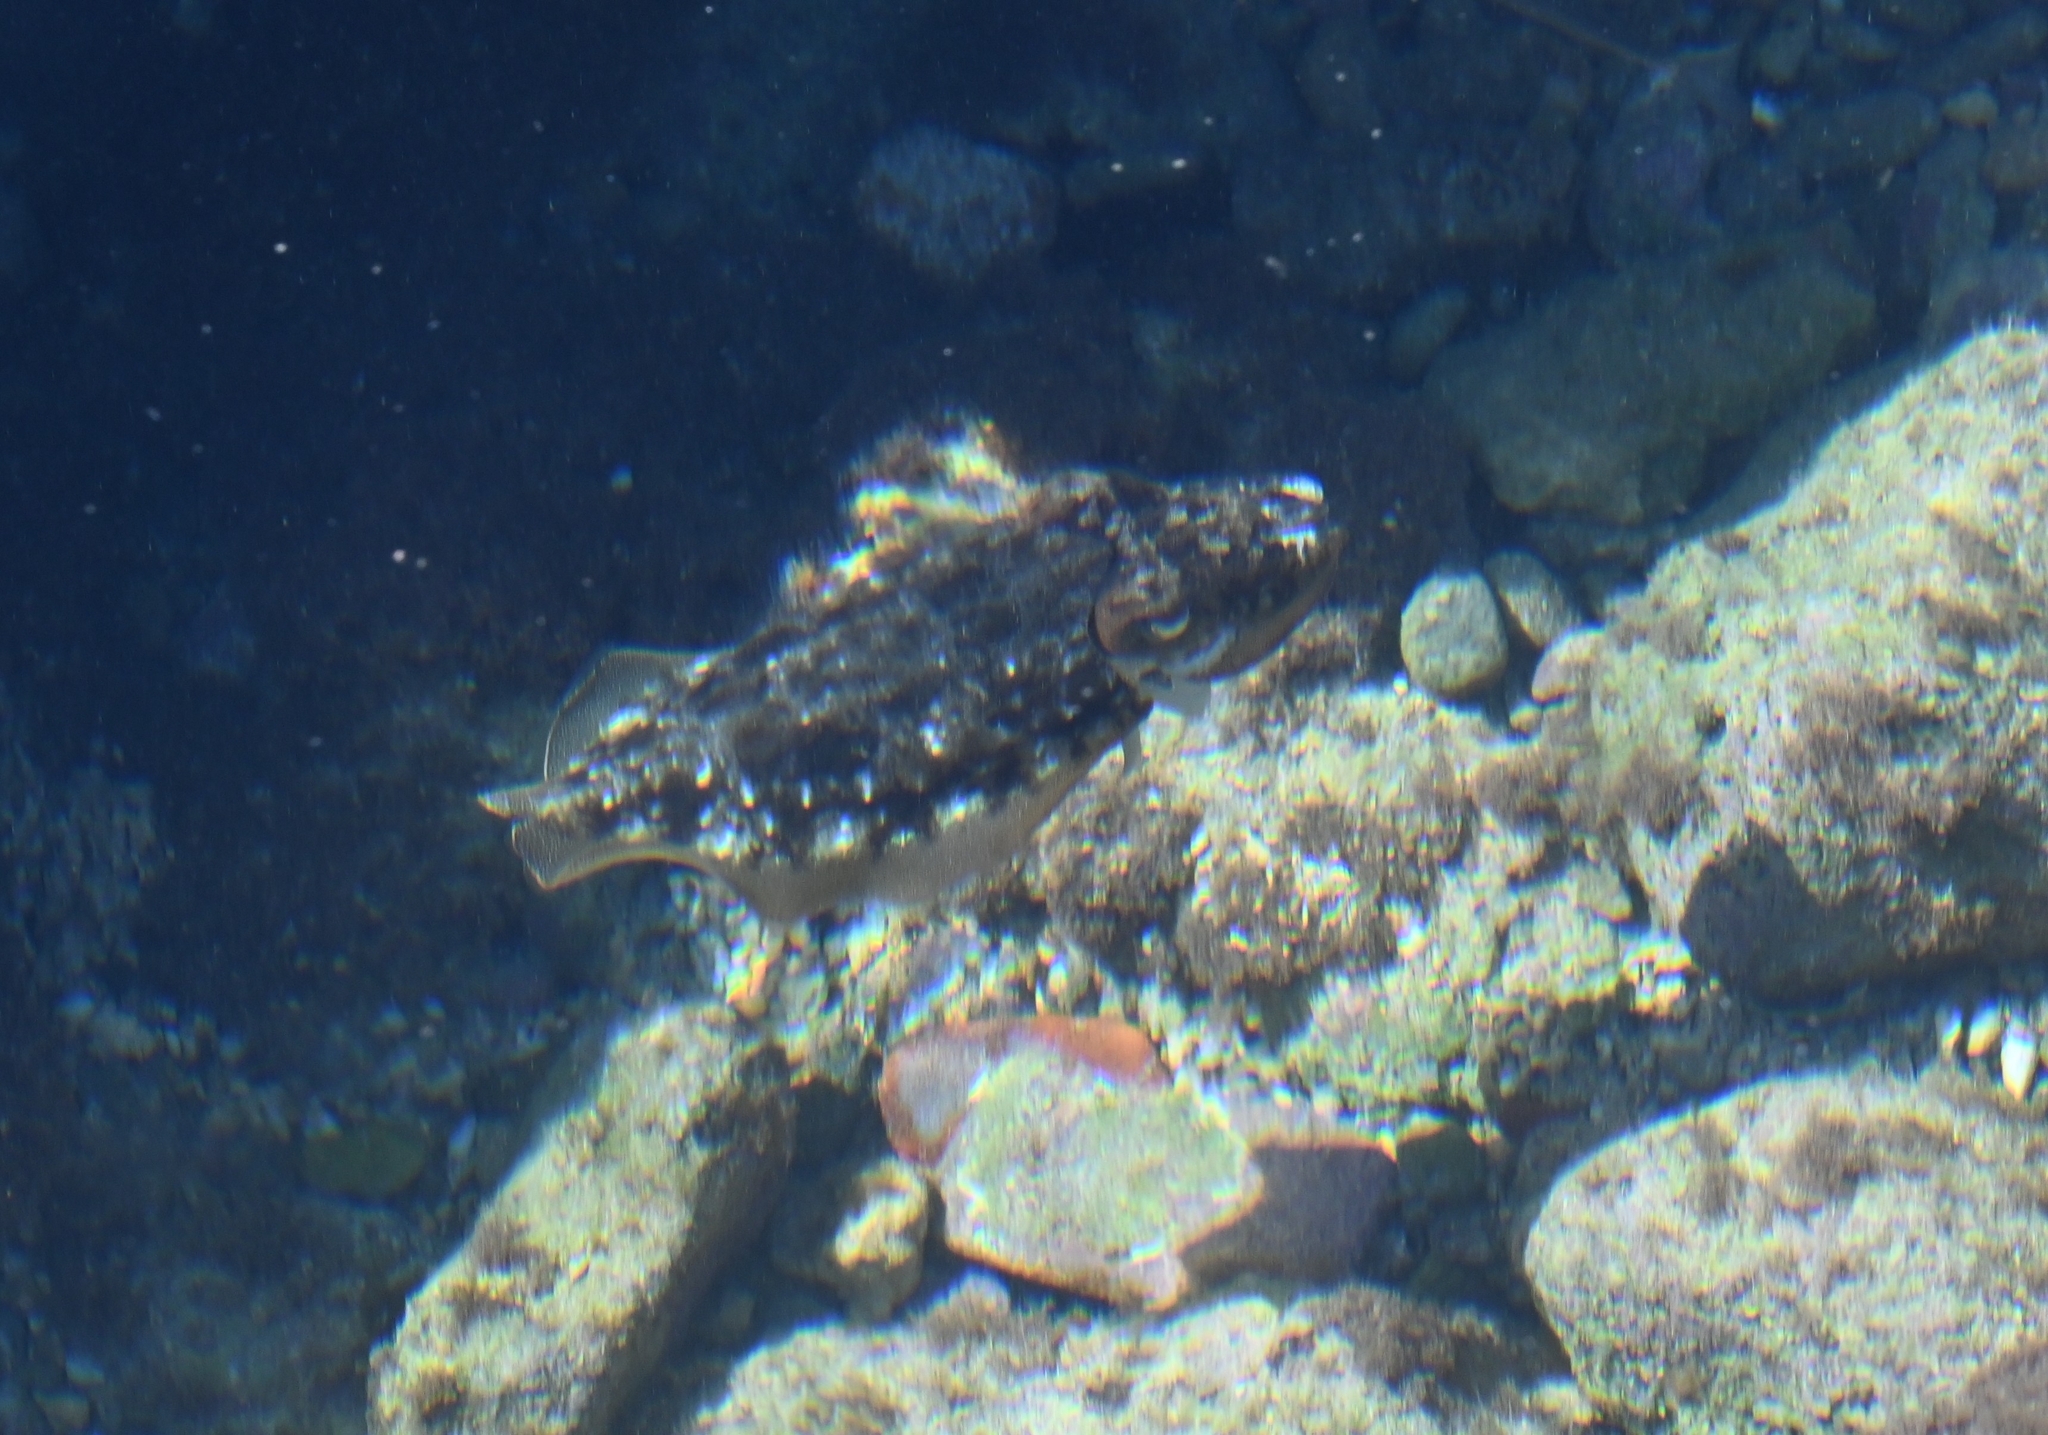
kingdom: Animalia
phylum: Mollusca
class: Cephalopoda
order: Sepiida
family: Sepiidae
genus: Sepia
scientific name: Sepia officinalis
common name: Common cuttlefish
